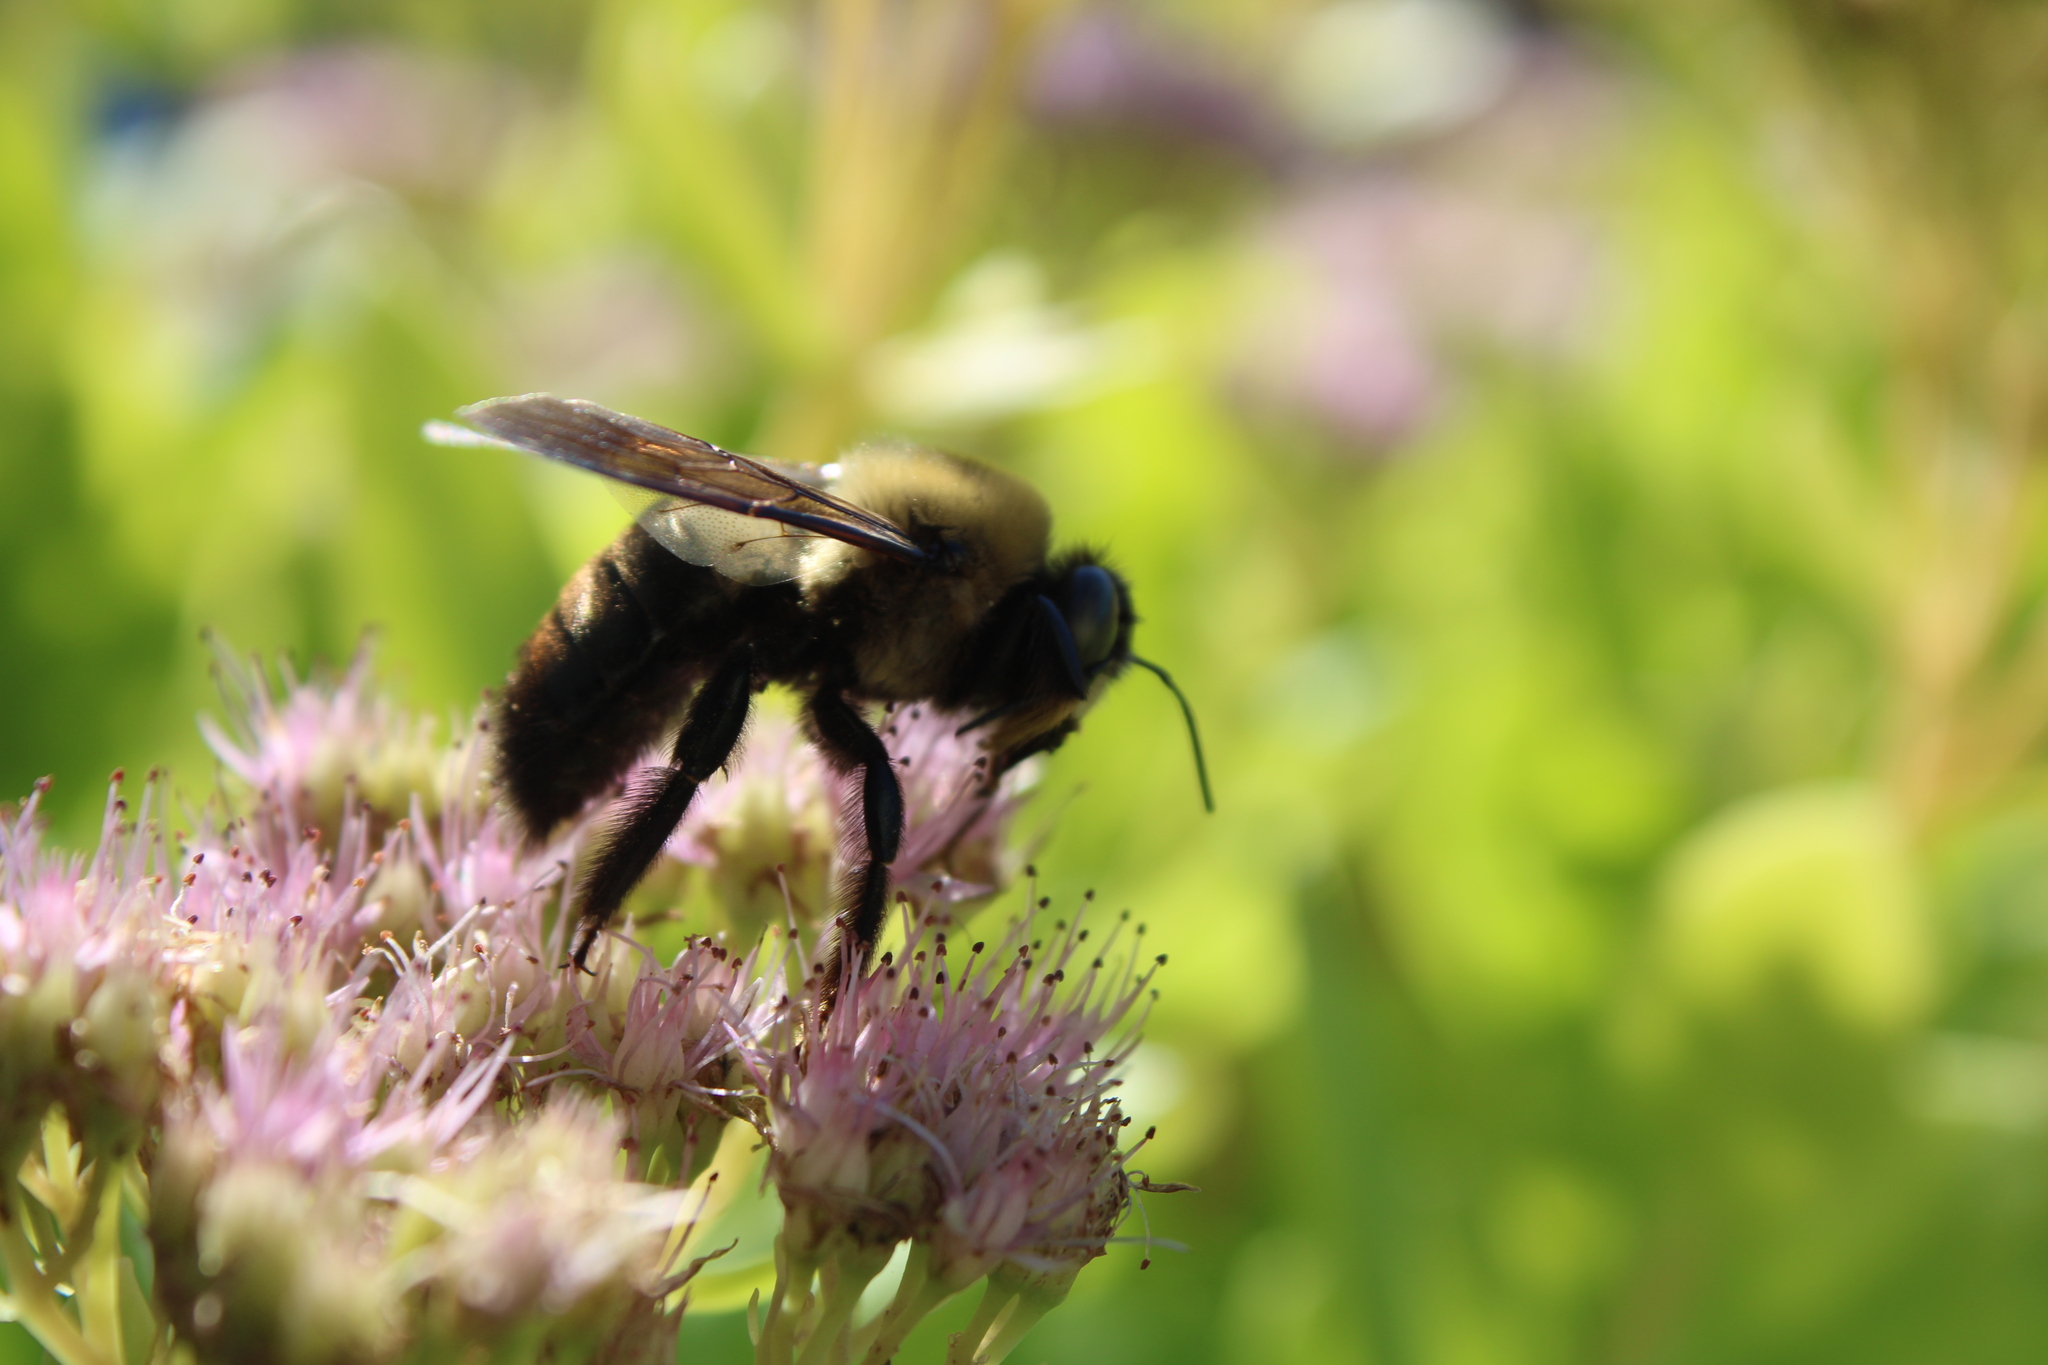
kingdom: Animalia
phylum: Arthropoda
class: Insecta
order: Hymenoptera
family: Apidae
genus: Xylocopa
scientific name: Xylocopa virginica
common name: Carpenter bee
